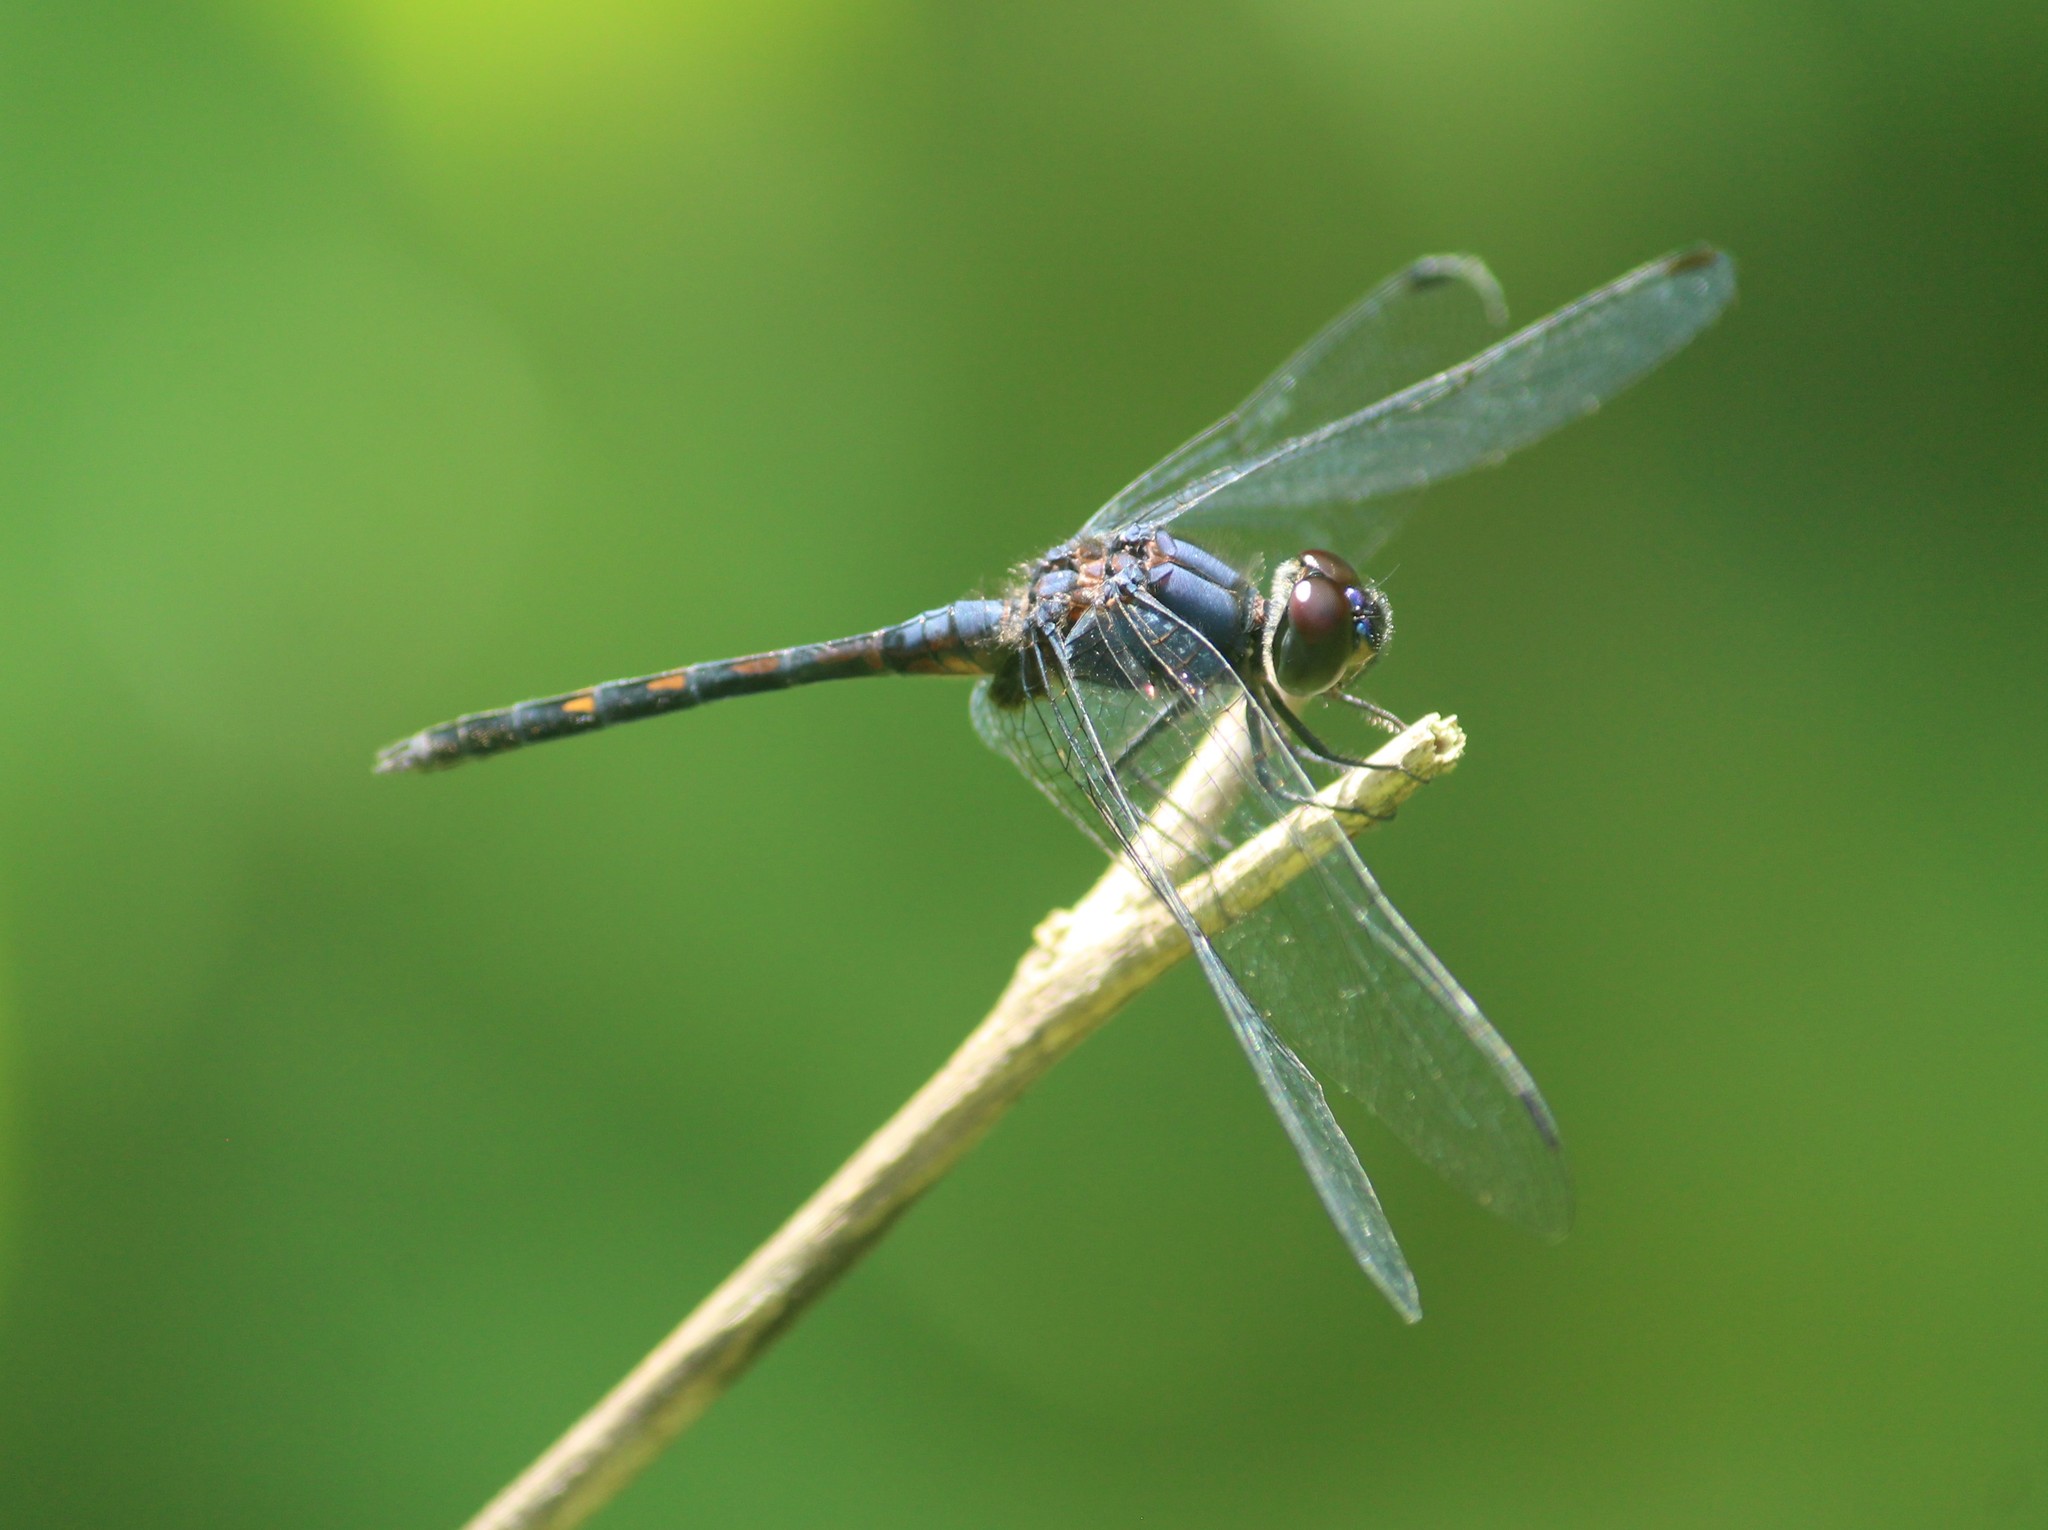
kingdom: Animalia
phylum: Arthropoda
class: Insecta
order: Odonata
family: Libellulidae
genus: Trithemis
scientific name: Trithemis festiva
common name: Indigo dropwing
